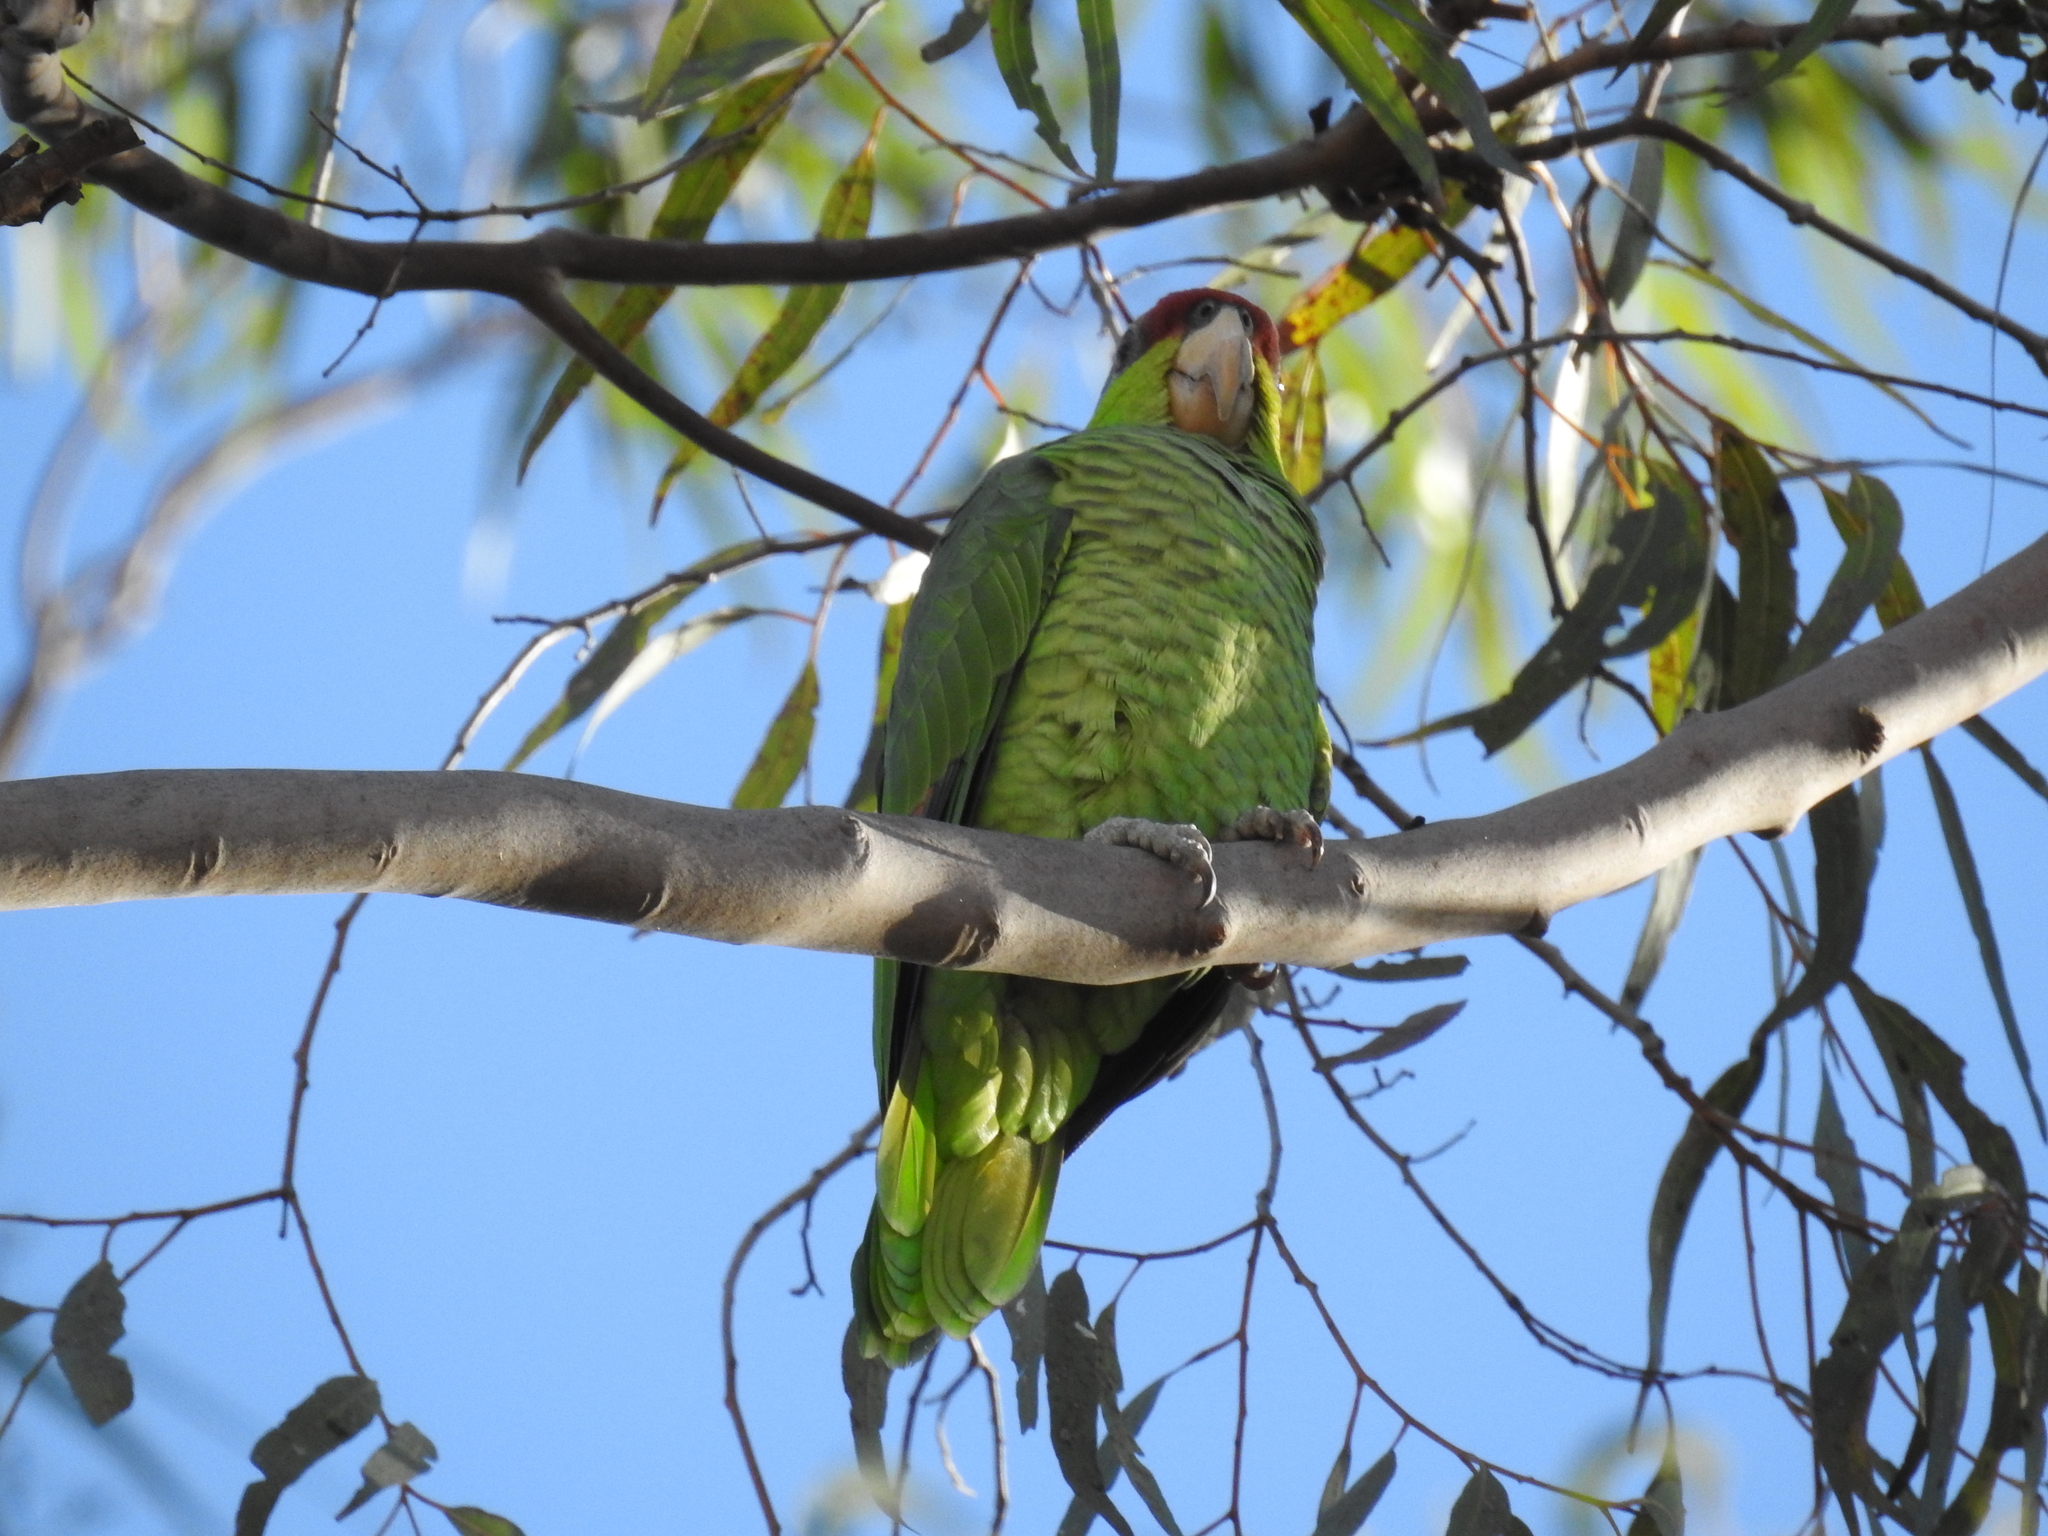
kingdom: Animalia
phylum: Chordata
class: Aves
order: Psittaciformes
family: Psittacidae
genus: Amazona
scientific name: Amazona finschi
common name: Lilac-crowned amazon
